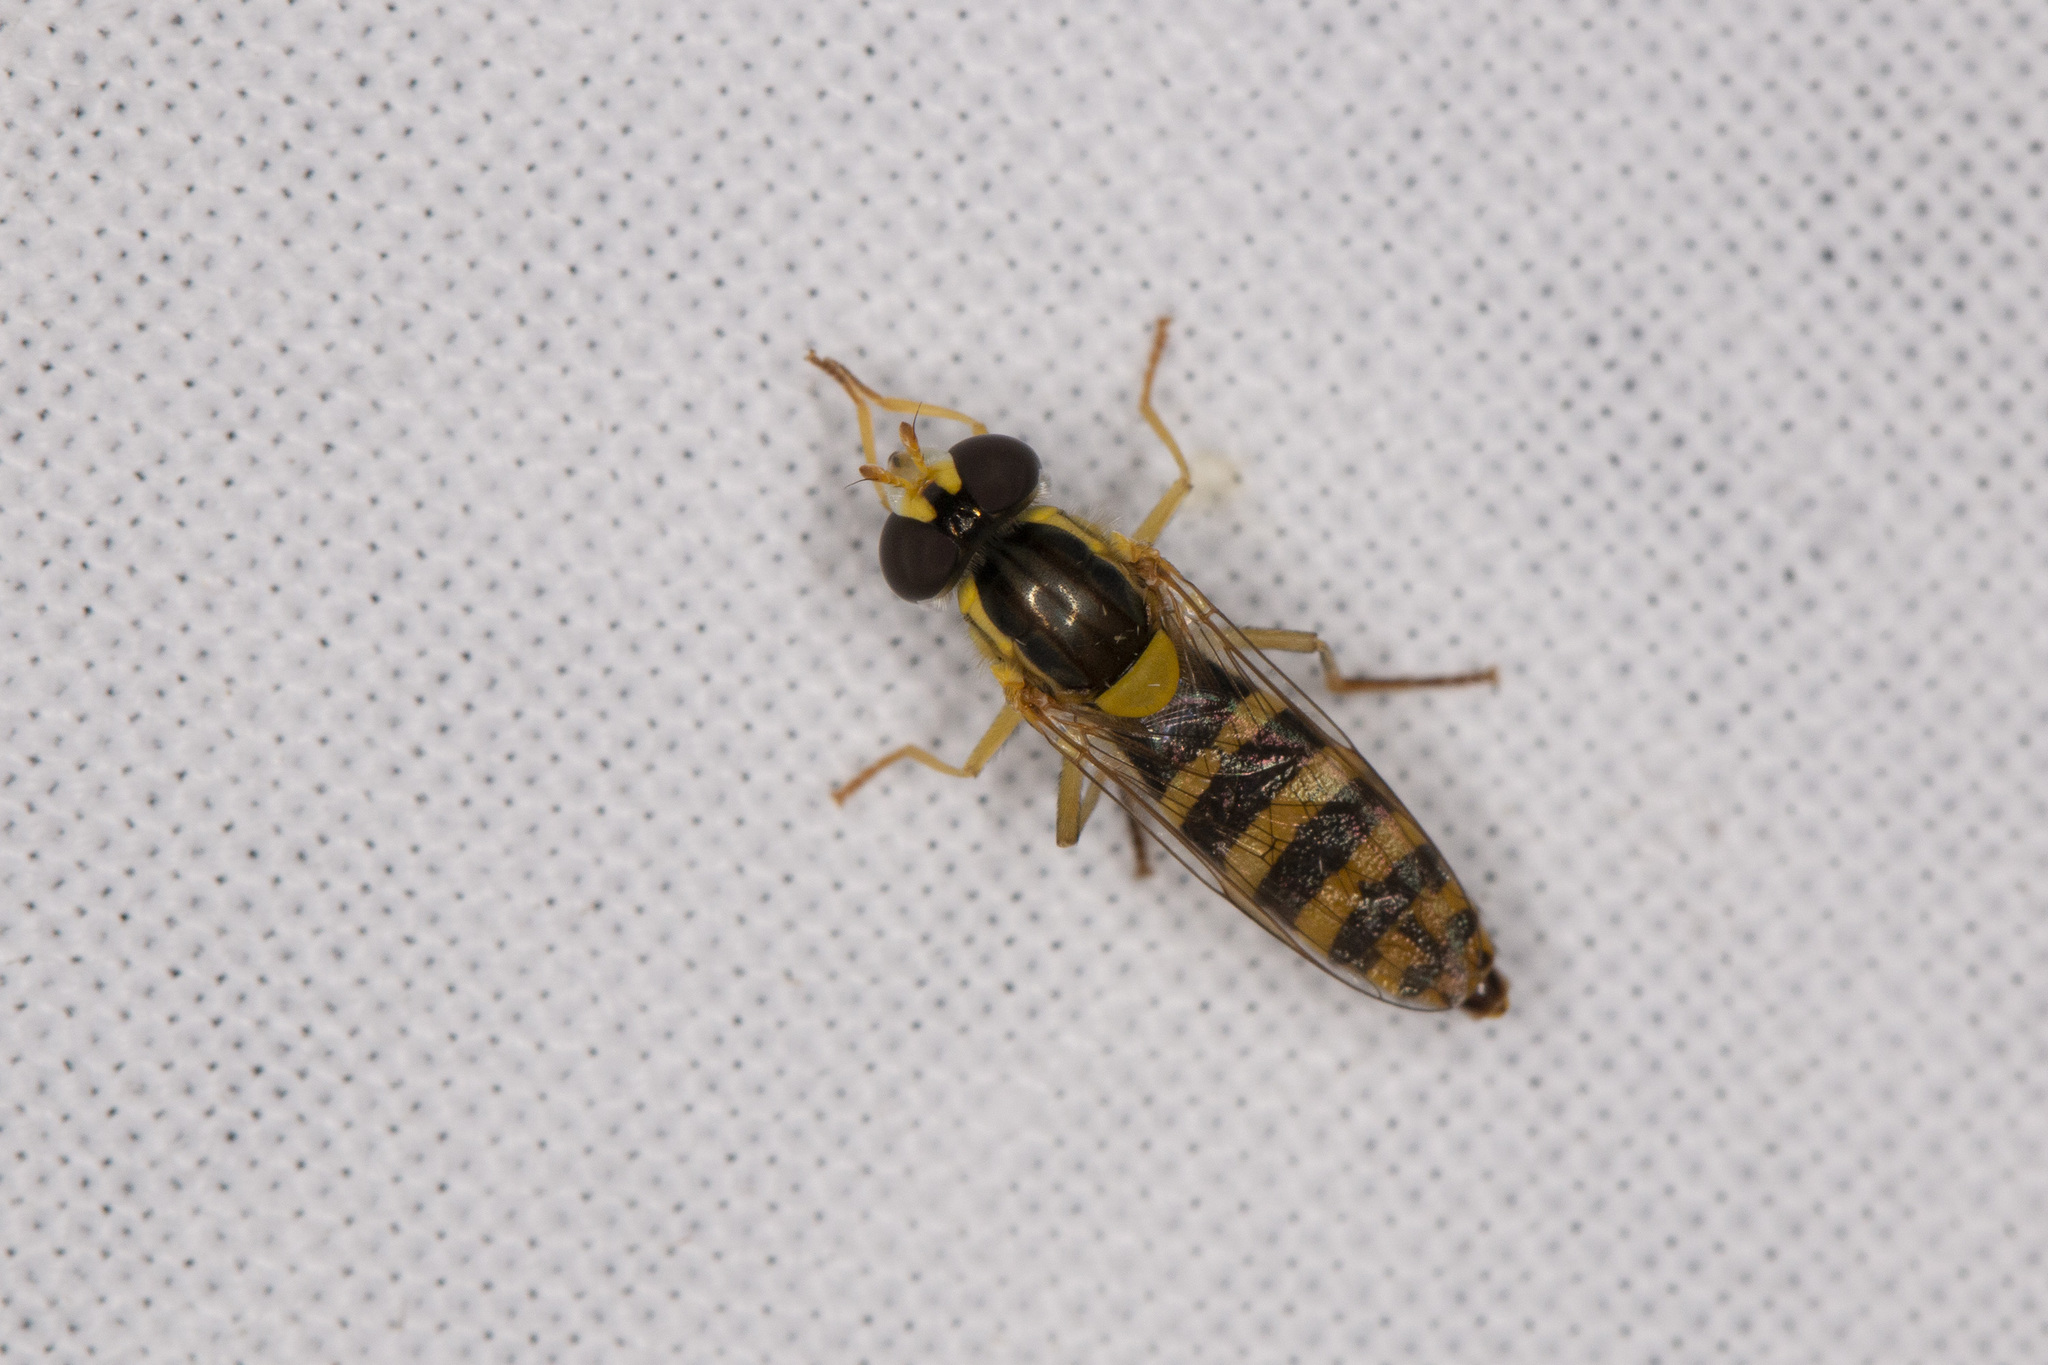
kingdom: Animalia
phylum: Arthropoda
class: Insecta
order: Diptera
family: Syrphidae
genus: Sphaerophoria
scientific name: Sphaerophoria scripta
